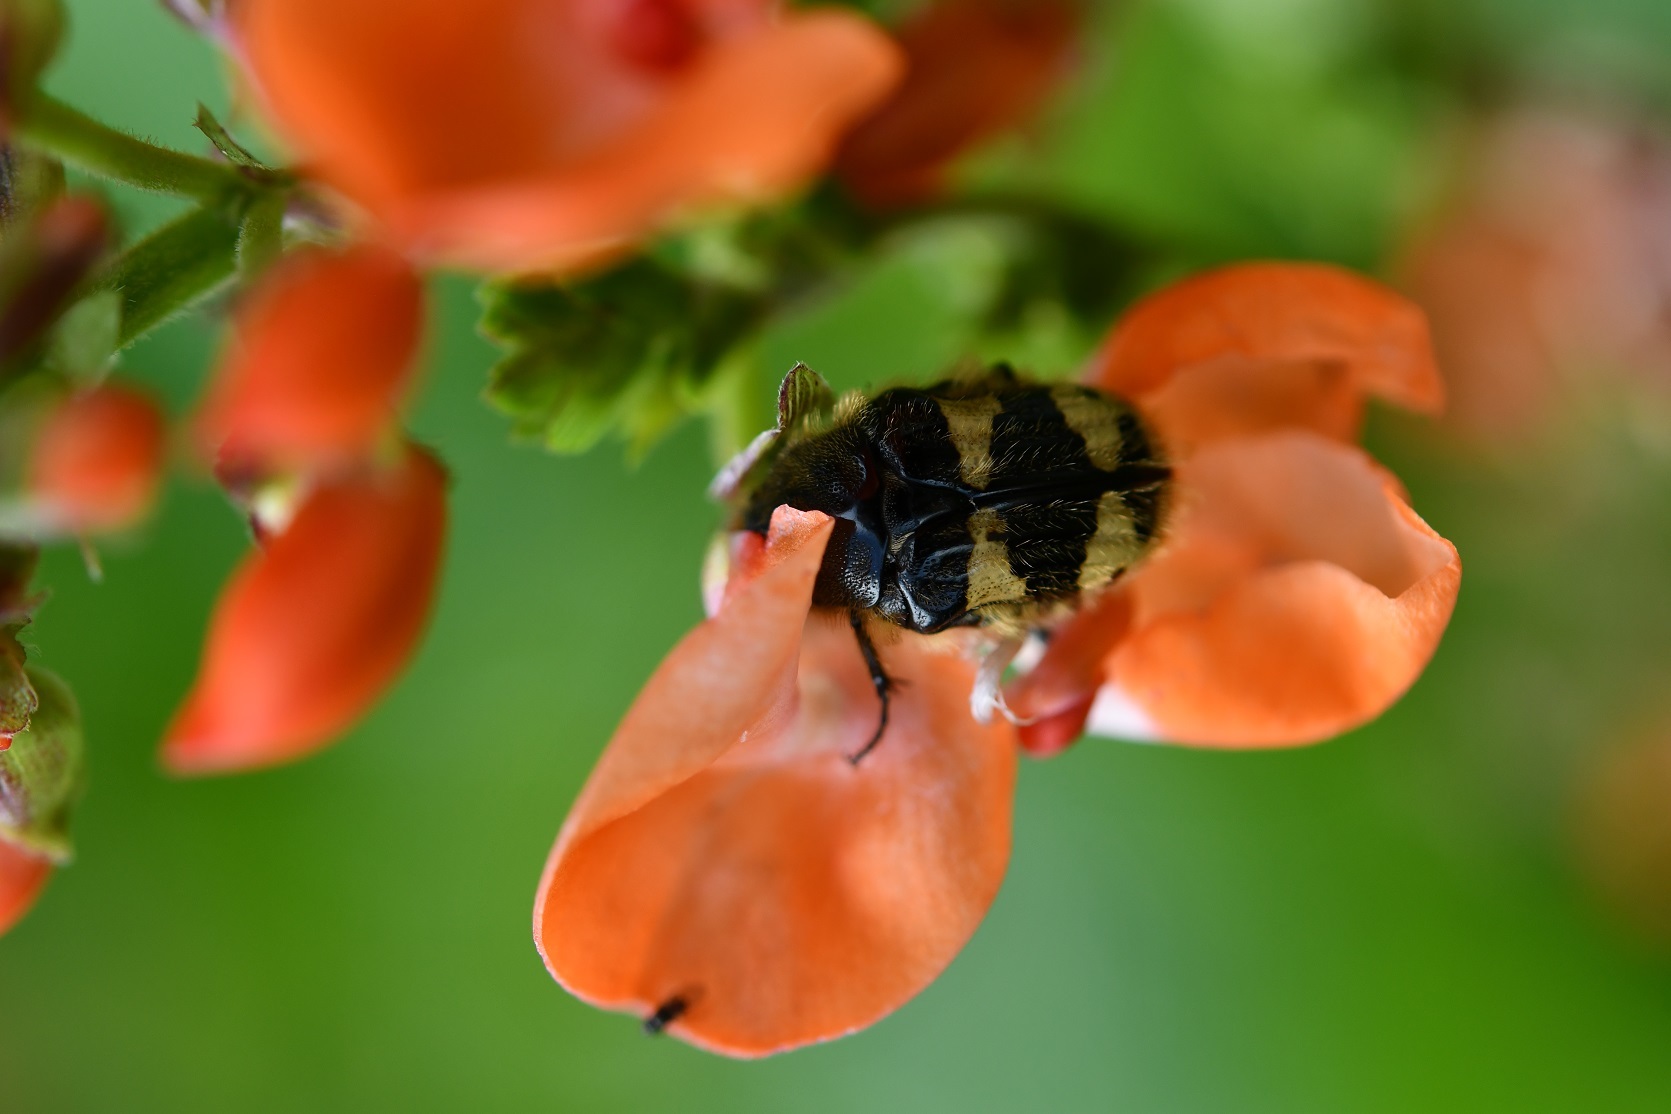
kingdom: Animalia
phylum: Arthropoda
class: Insecta
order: Coleoptera
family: Scarabaeidae
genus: Euphoria
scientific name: Euphoria basalis
